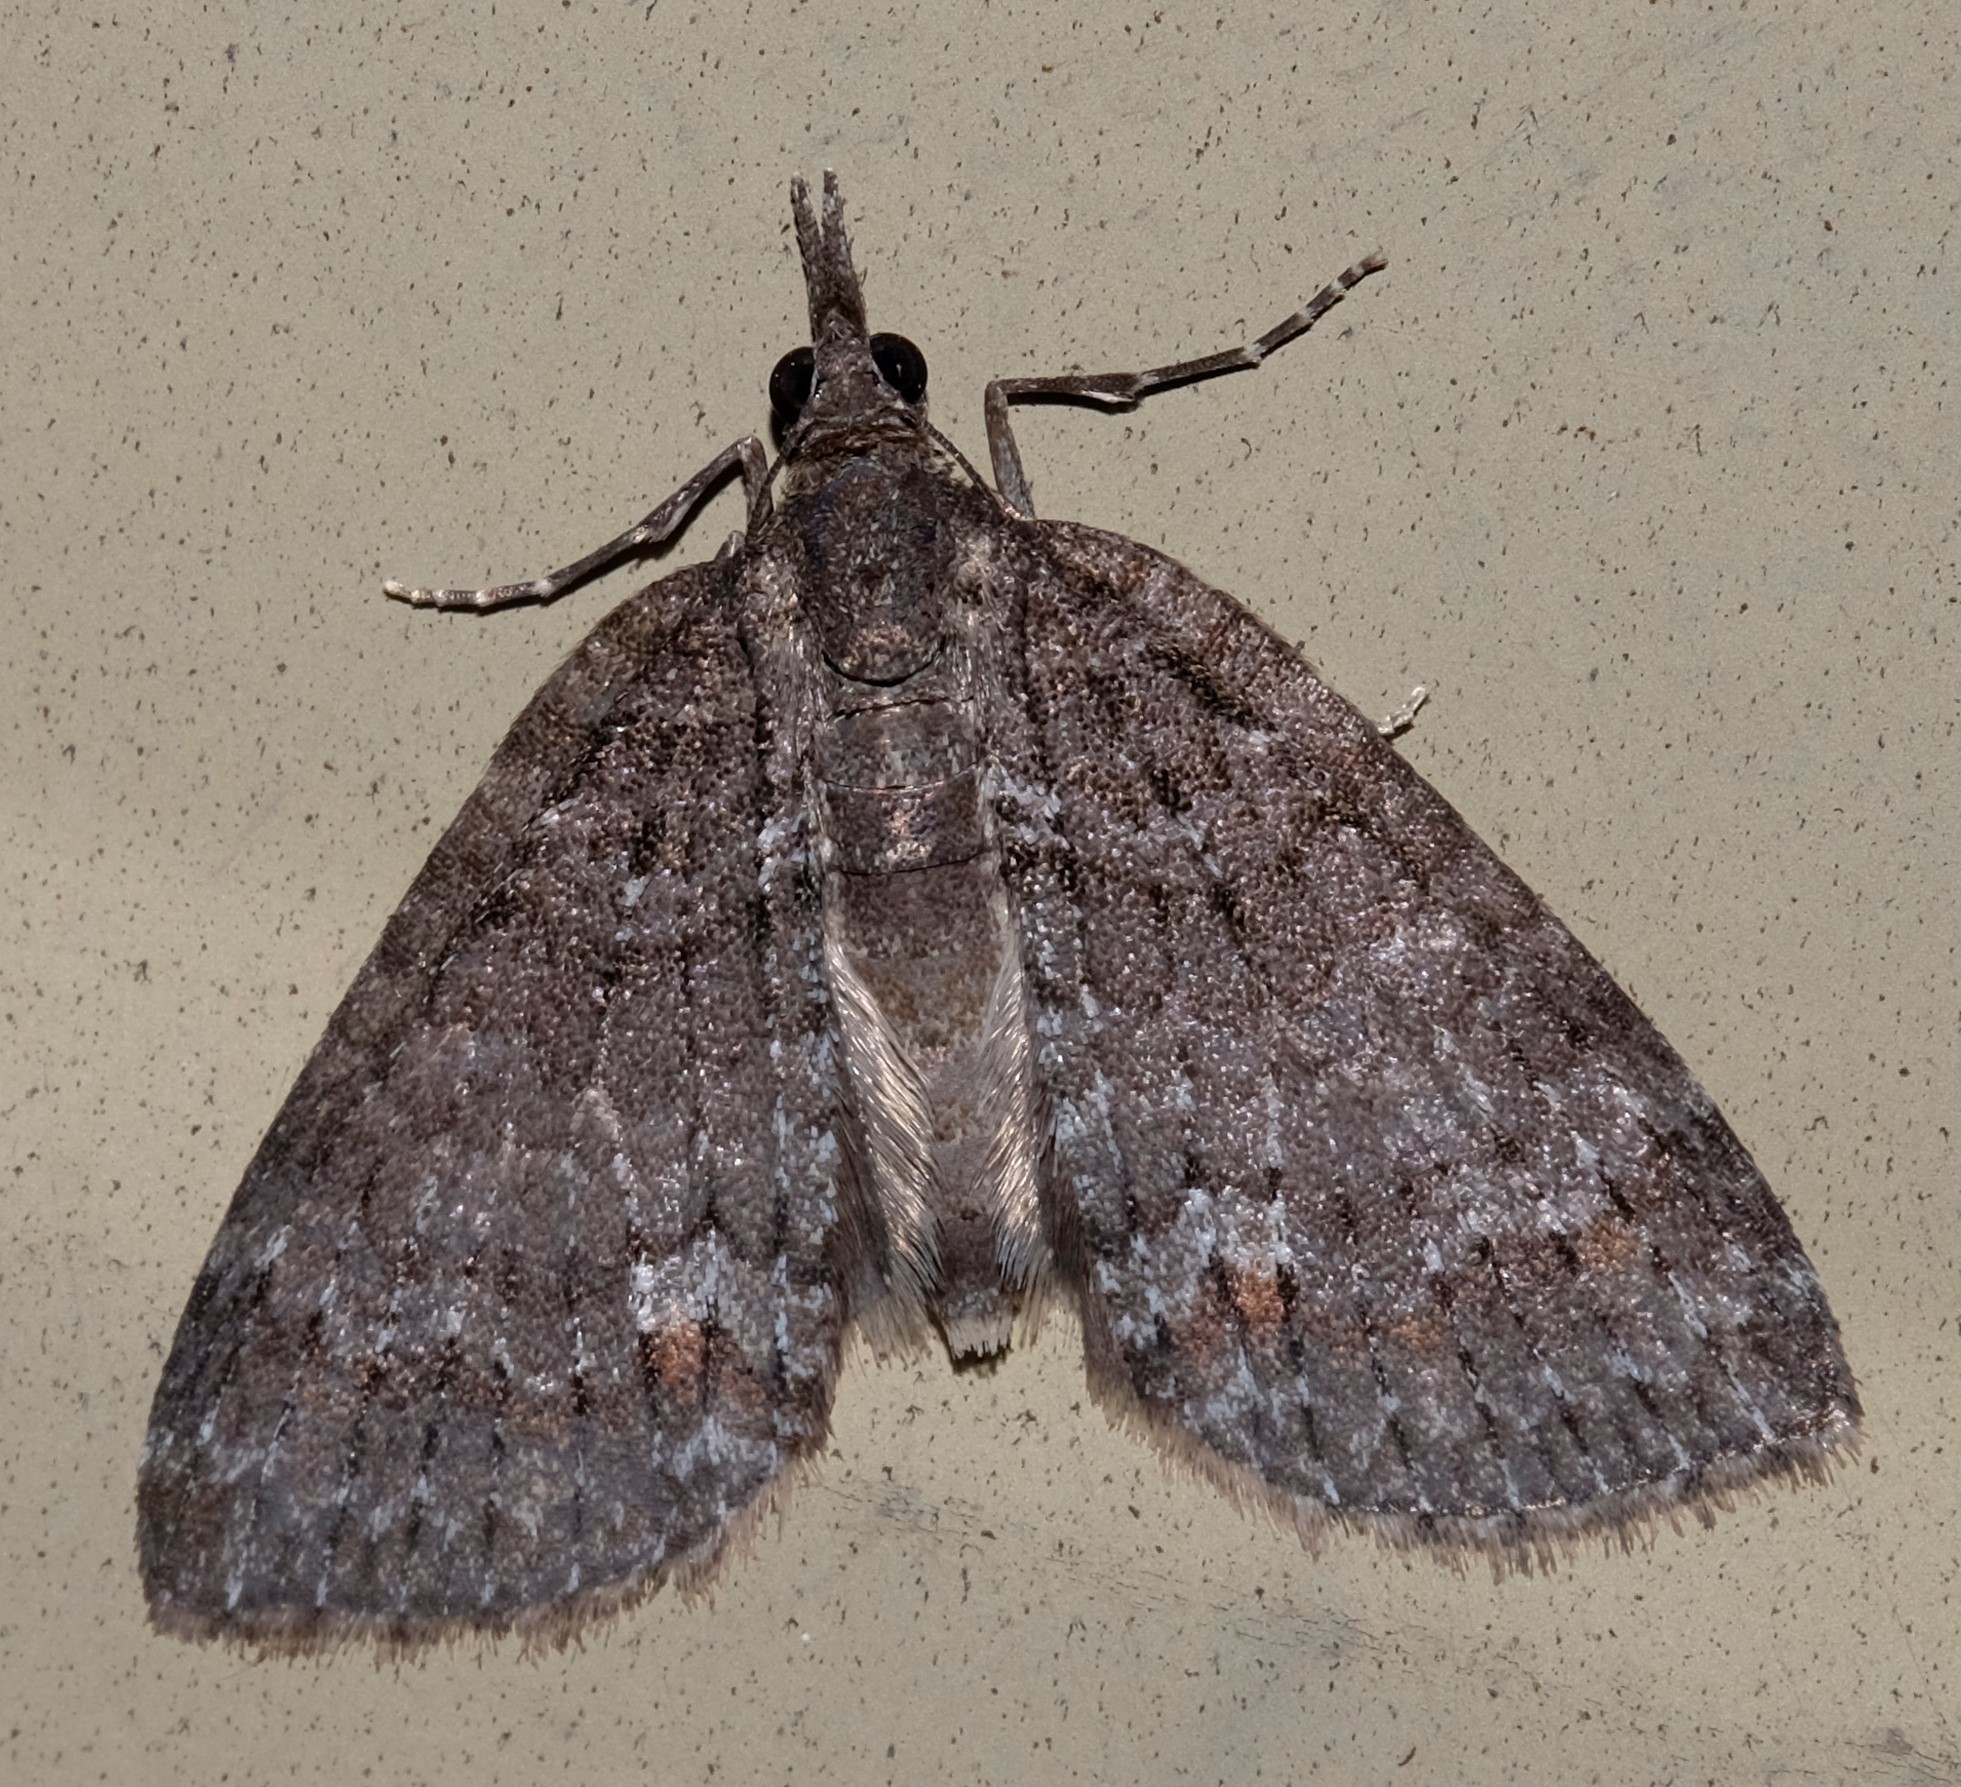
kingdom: Animalia
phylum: Arthropoda
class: Insecta
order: Lepidoptera
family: Geometridae
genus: Microdes
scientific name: Microdes squamulata
